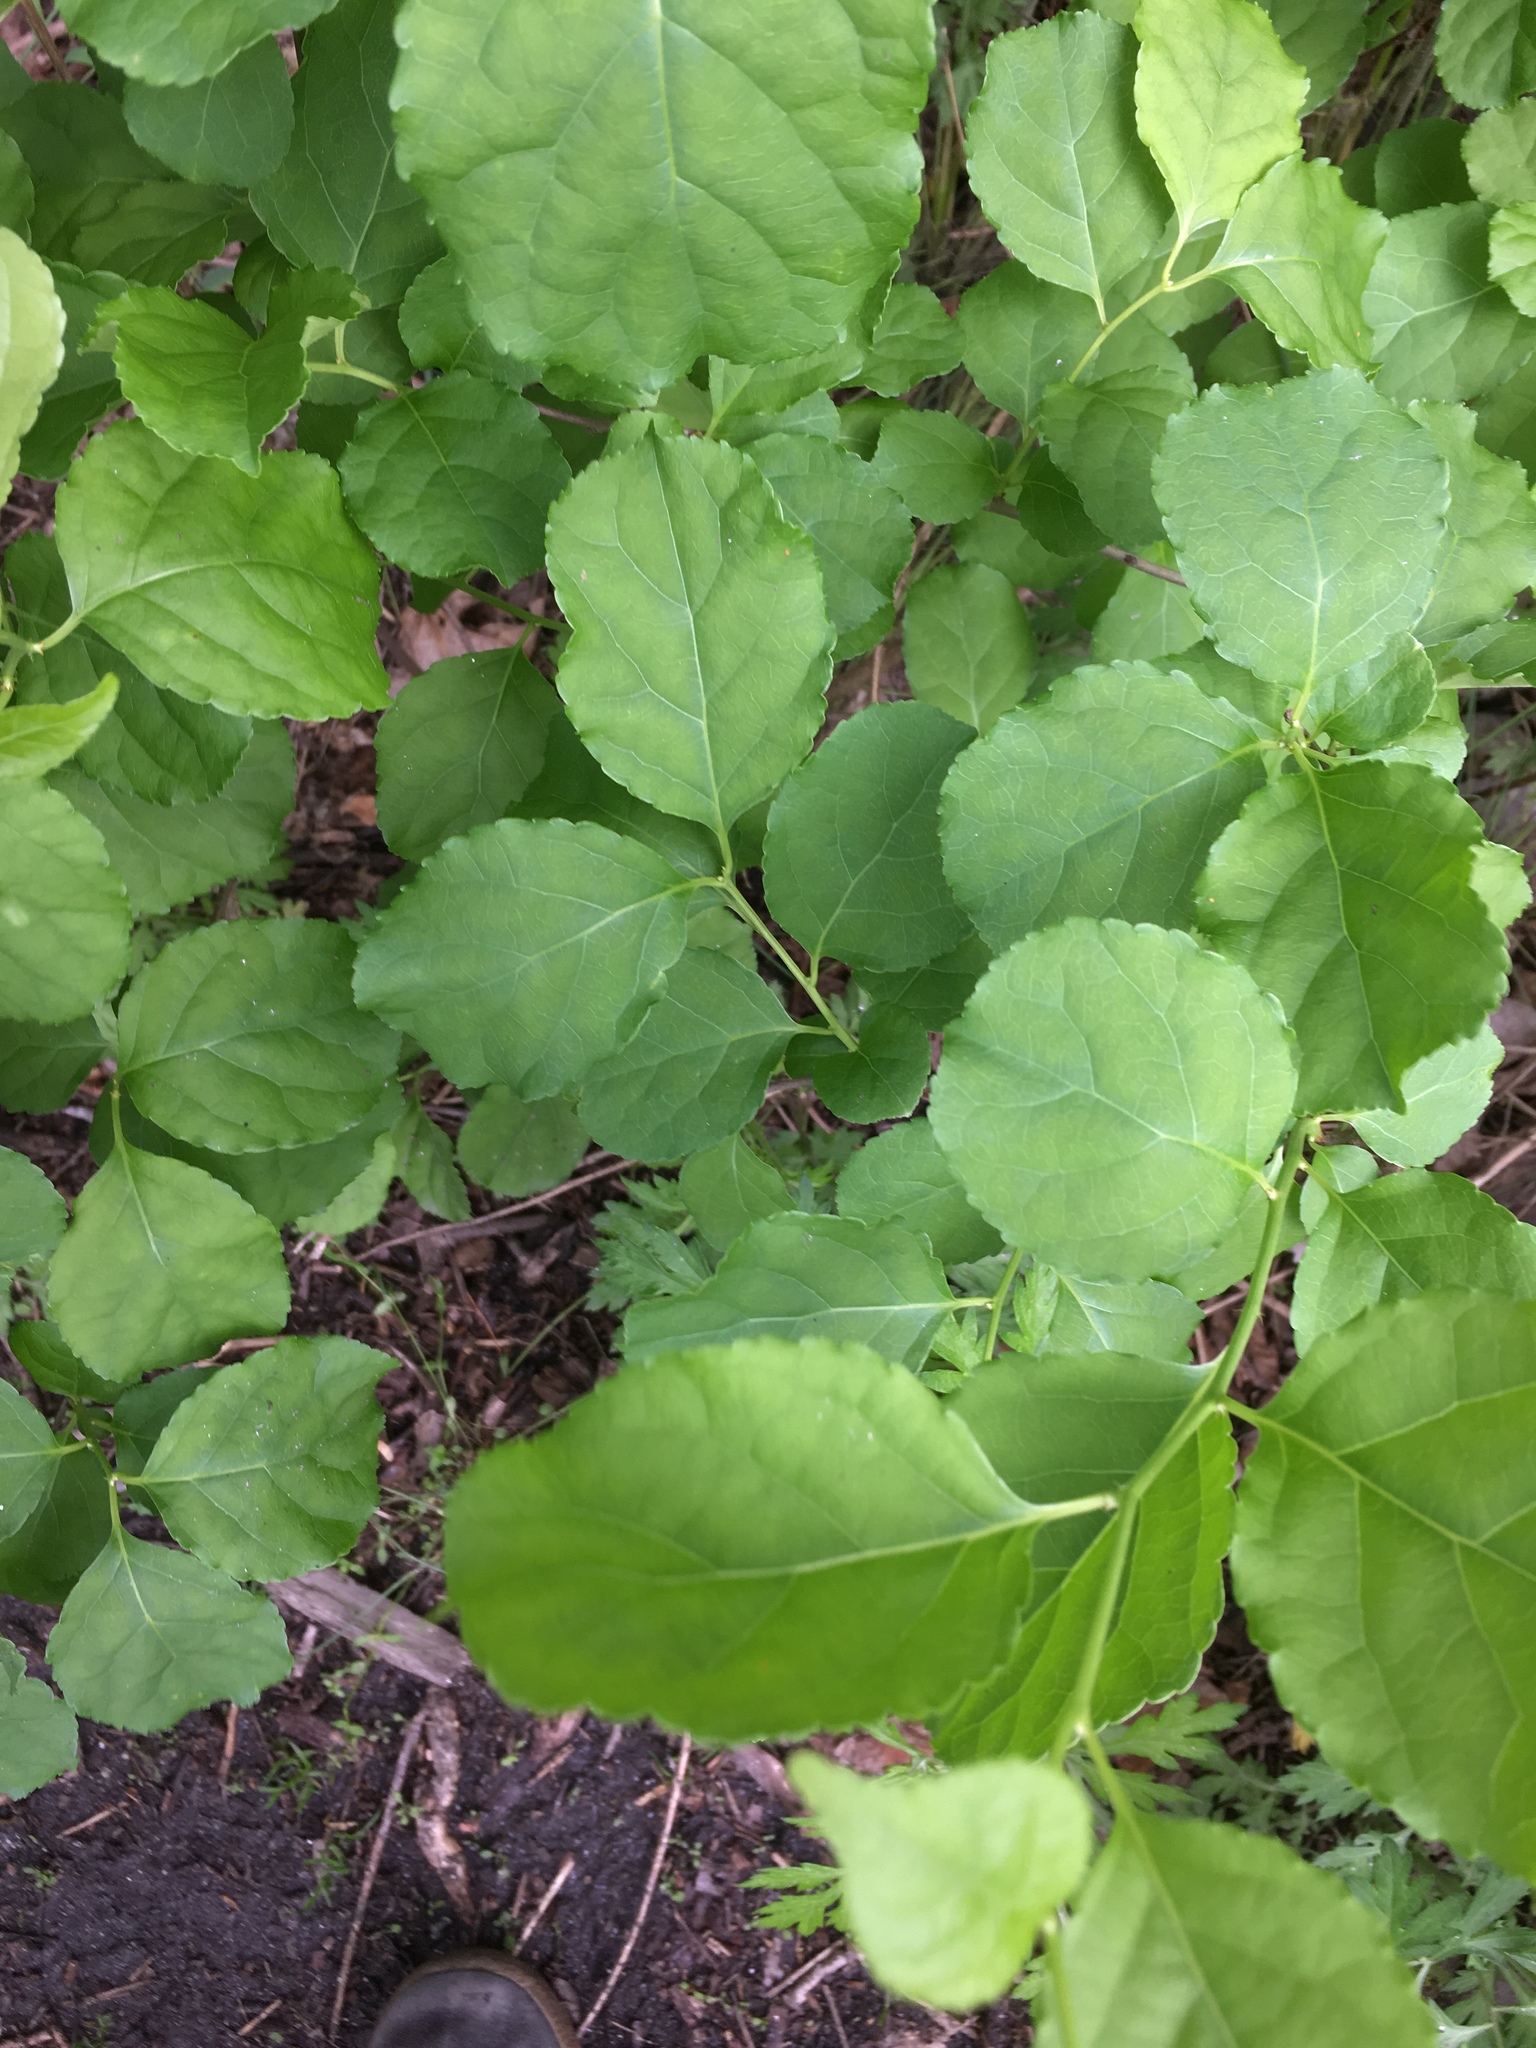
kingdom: Plantae
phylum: Tracheophyta
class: Magnoliopsida
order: Celastrales
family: Celastraceae
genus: Celastrus
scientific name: Celastrus orbiculatus
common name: Oriental bittersweet
